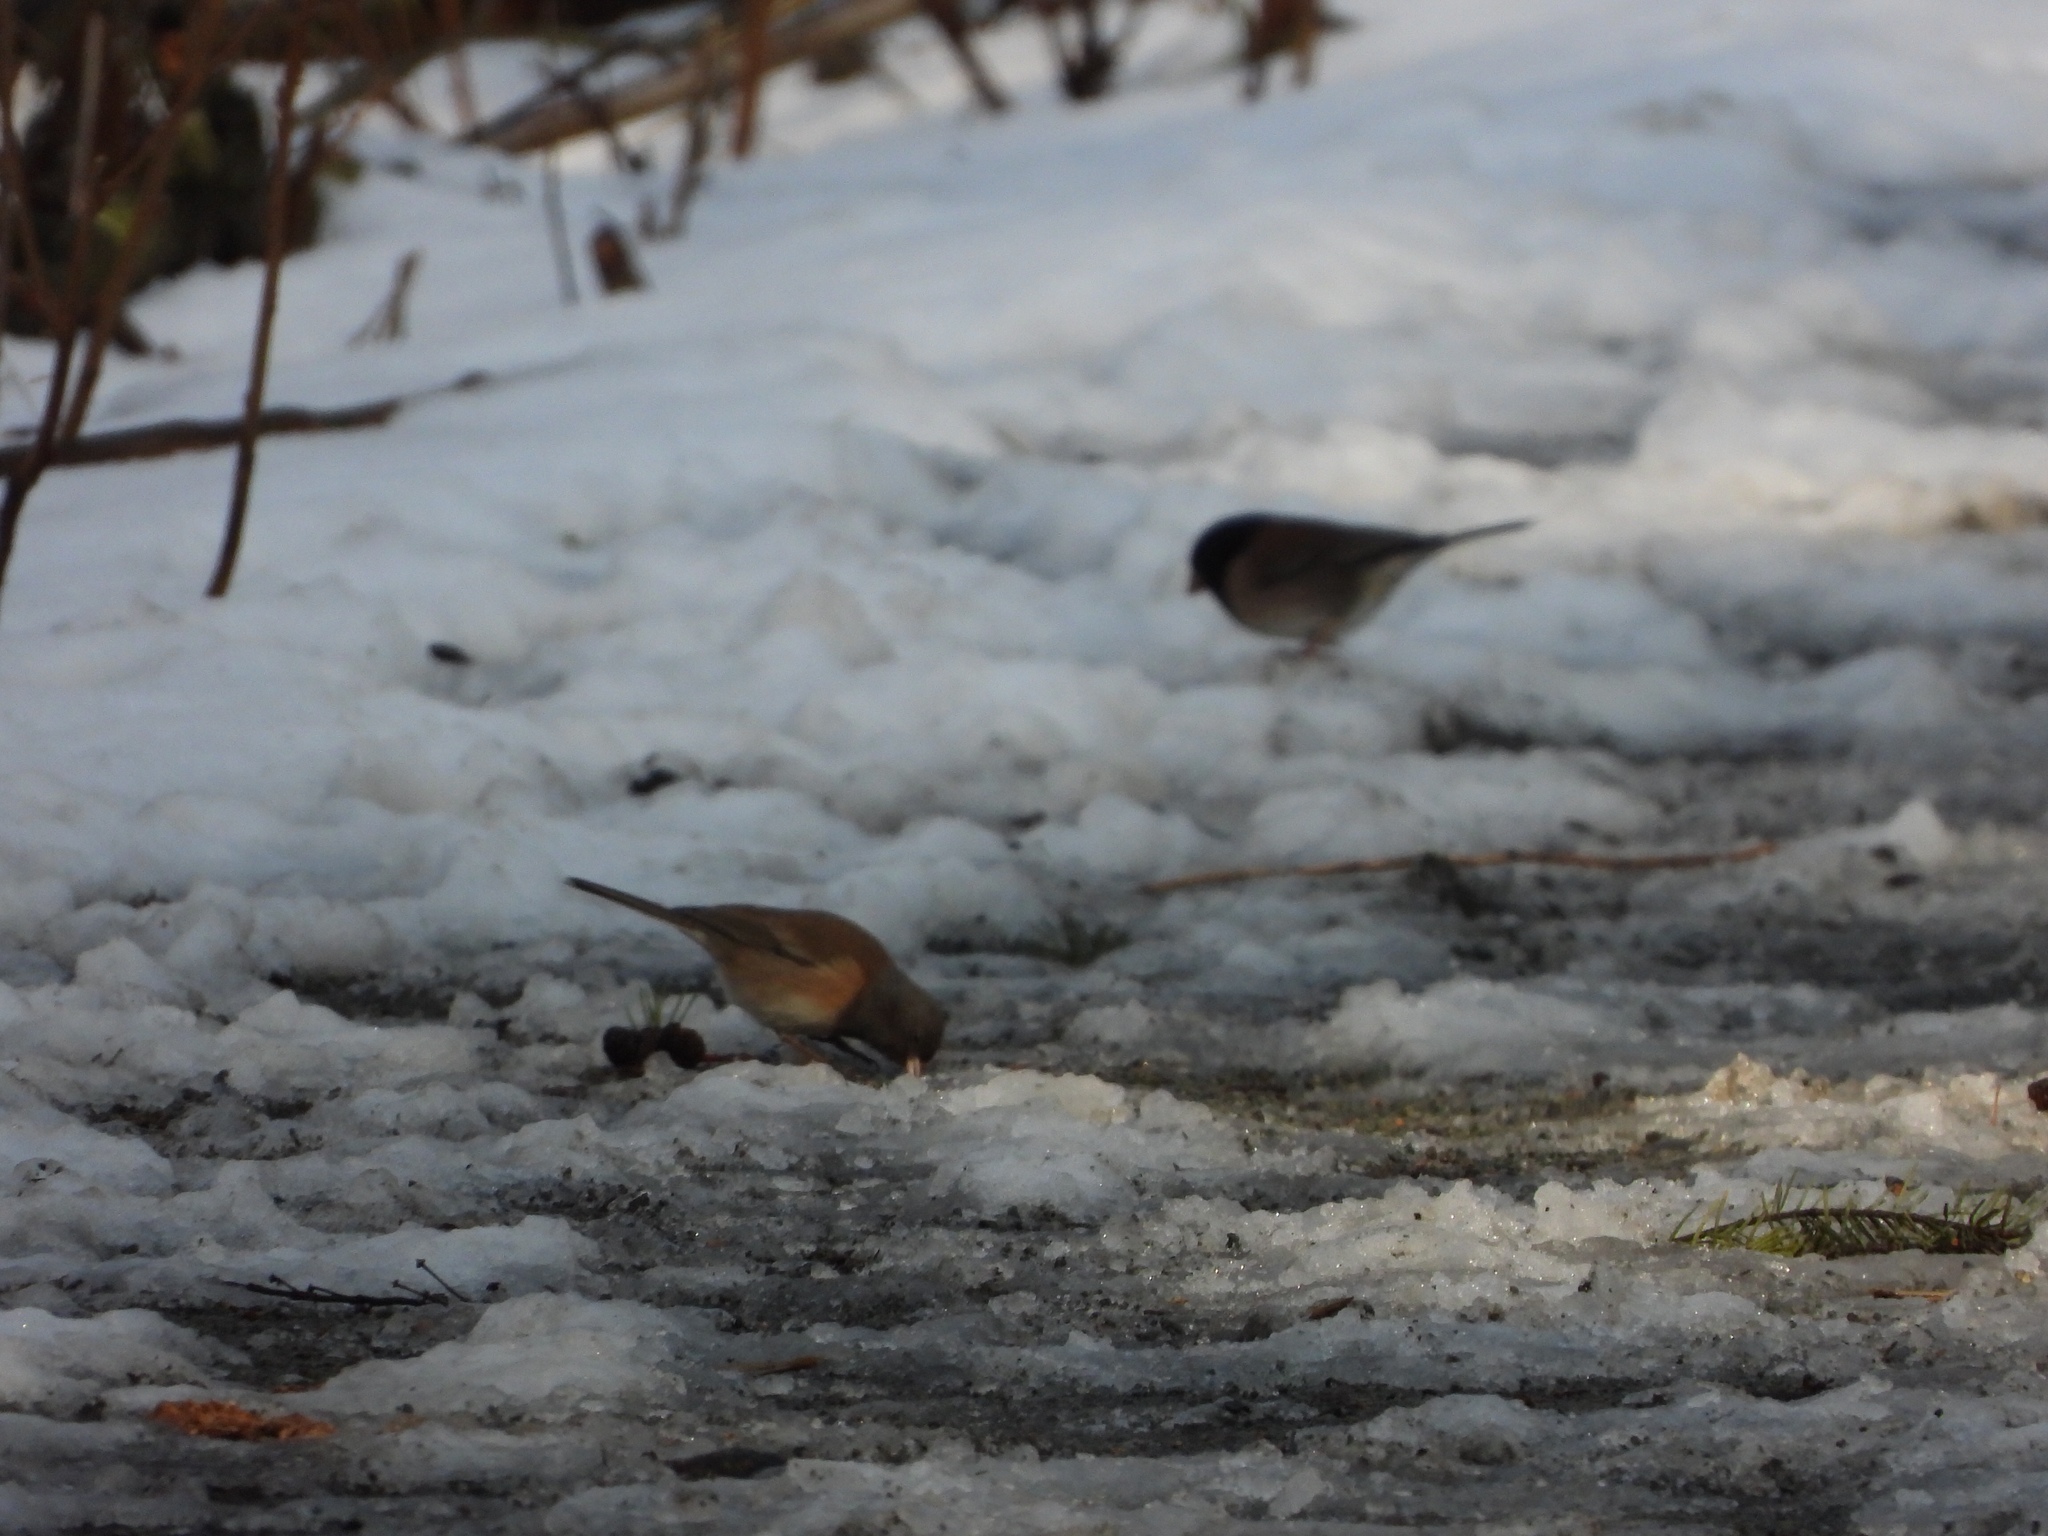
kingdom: Animalia
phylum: Chordata
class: Aves
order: Passeriformes
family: Passerellidae
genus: Junco
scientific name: Junco hyemalis
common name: Dark-eyed junco
